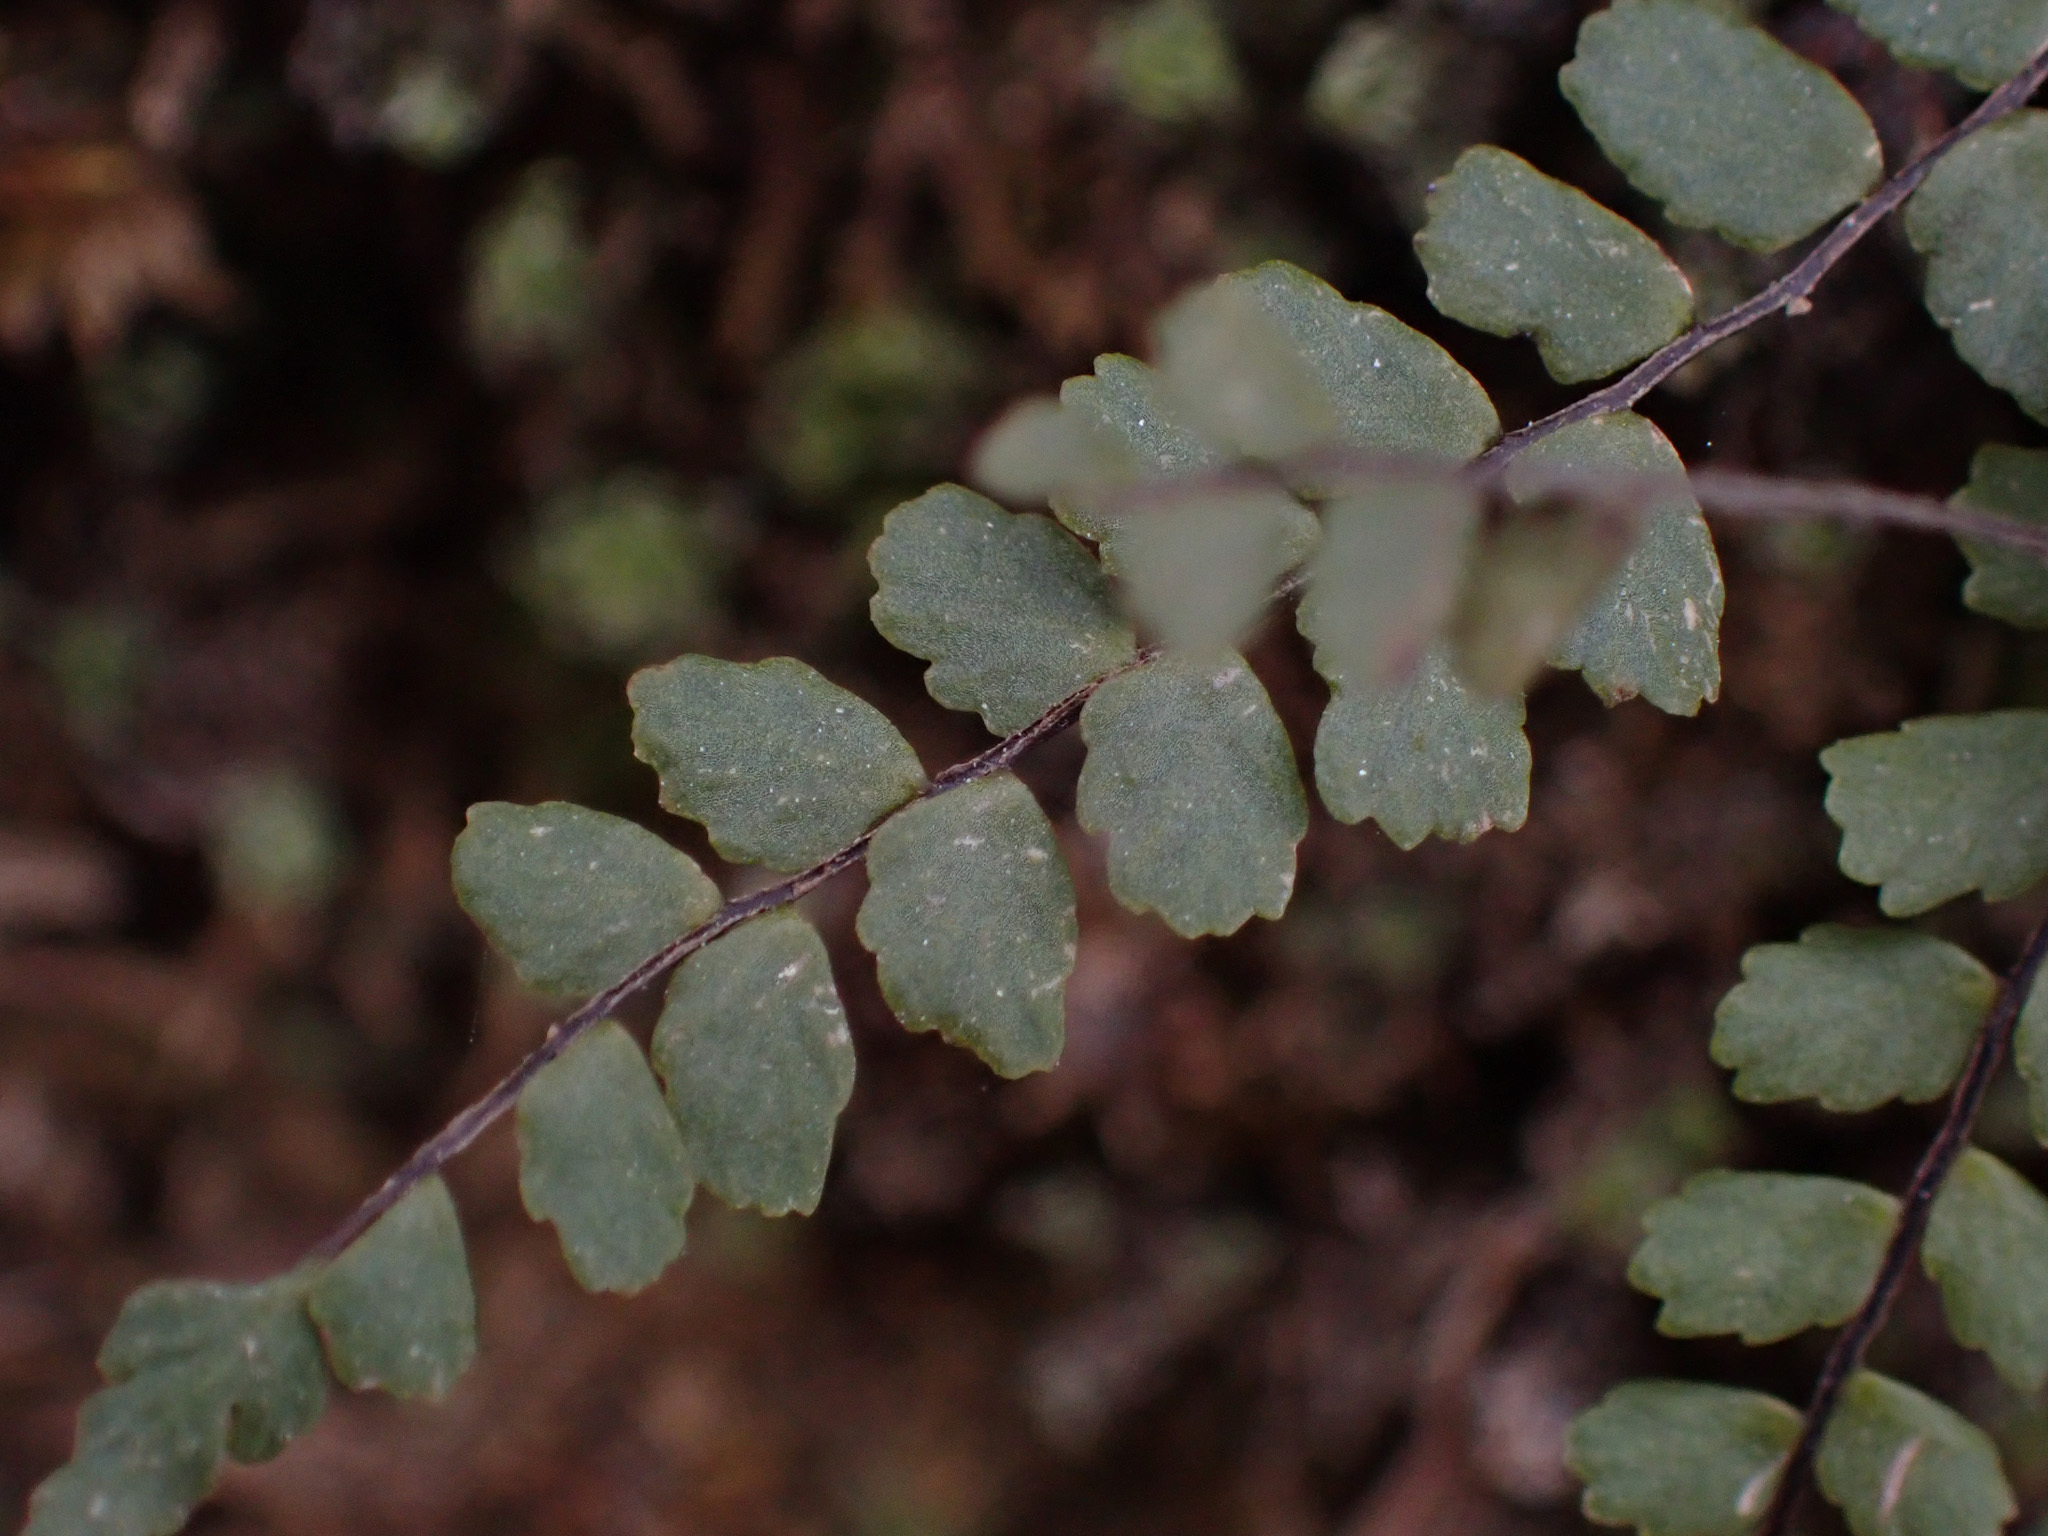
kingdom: Plantae
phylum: Tracheophyta
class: Polypodiopsida
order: Polypodiales
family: Aspleniaceae
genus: Asplenium
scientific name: Asplenium trichomanes
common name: Maidenhair spleenwort
